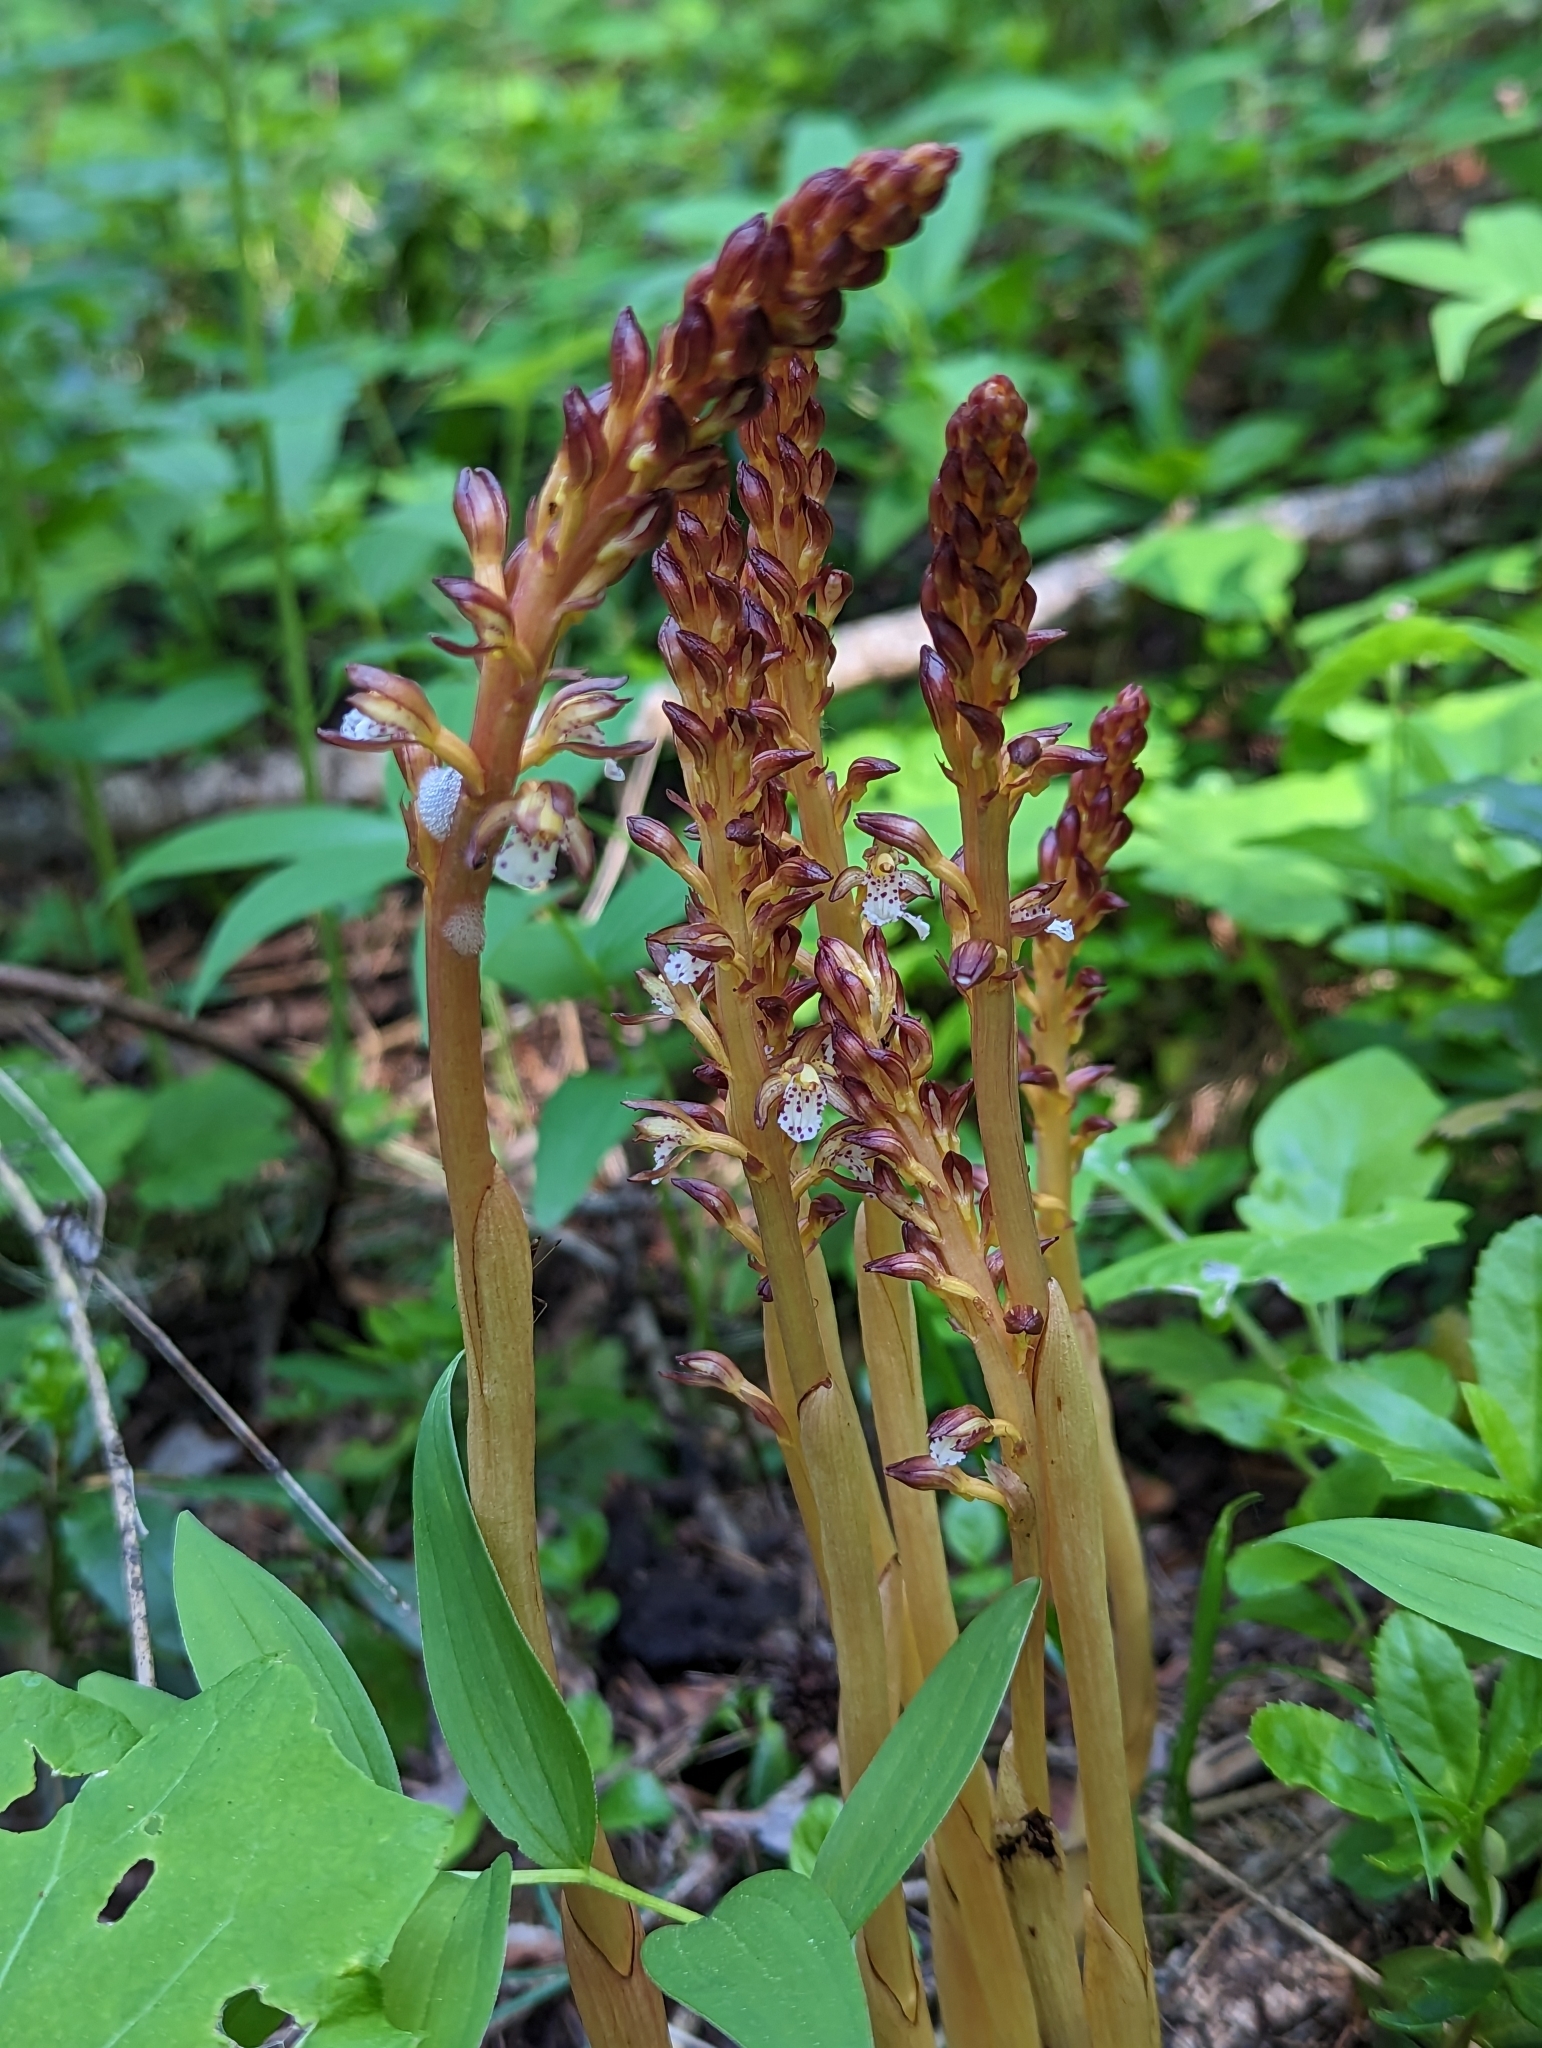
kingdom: Plantae
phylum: Tracheophyta
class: Liliopsida
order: Asparagales
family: Orchidaceae
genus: Corallorhiza
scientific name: Corallorhiza maculata
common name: Spotted coralroot
